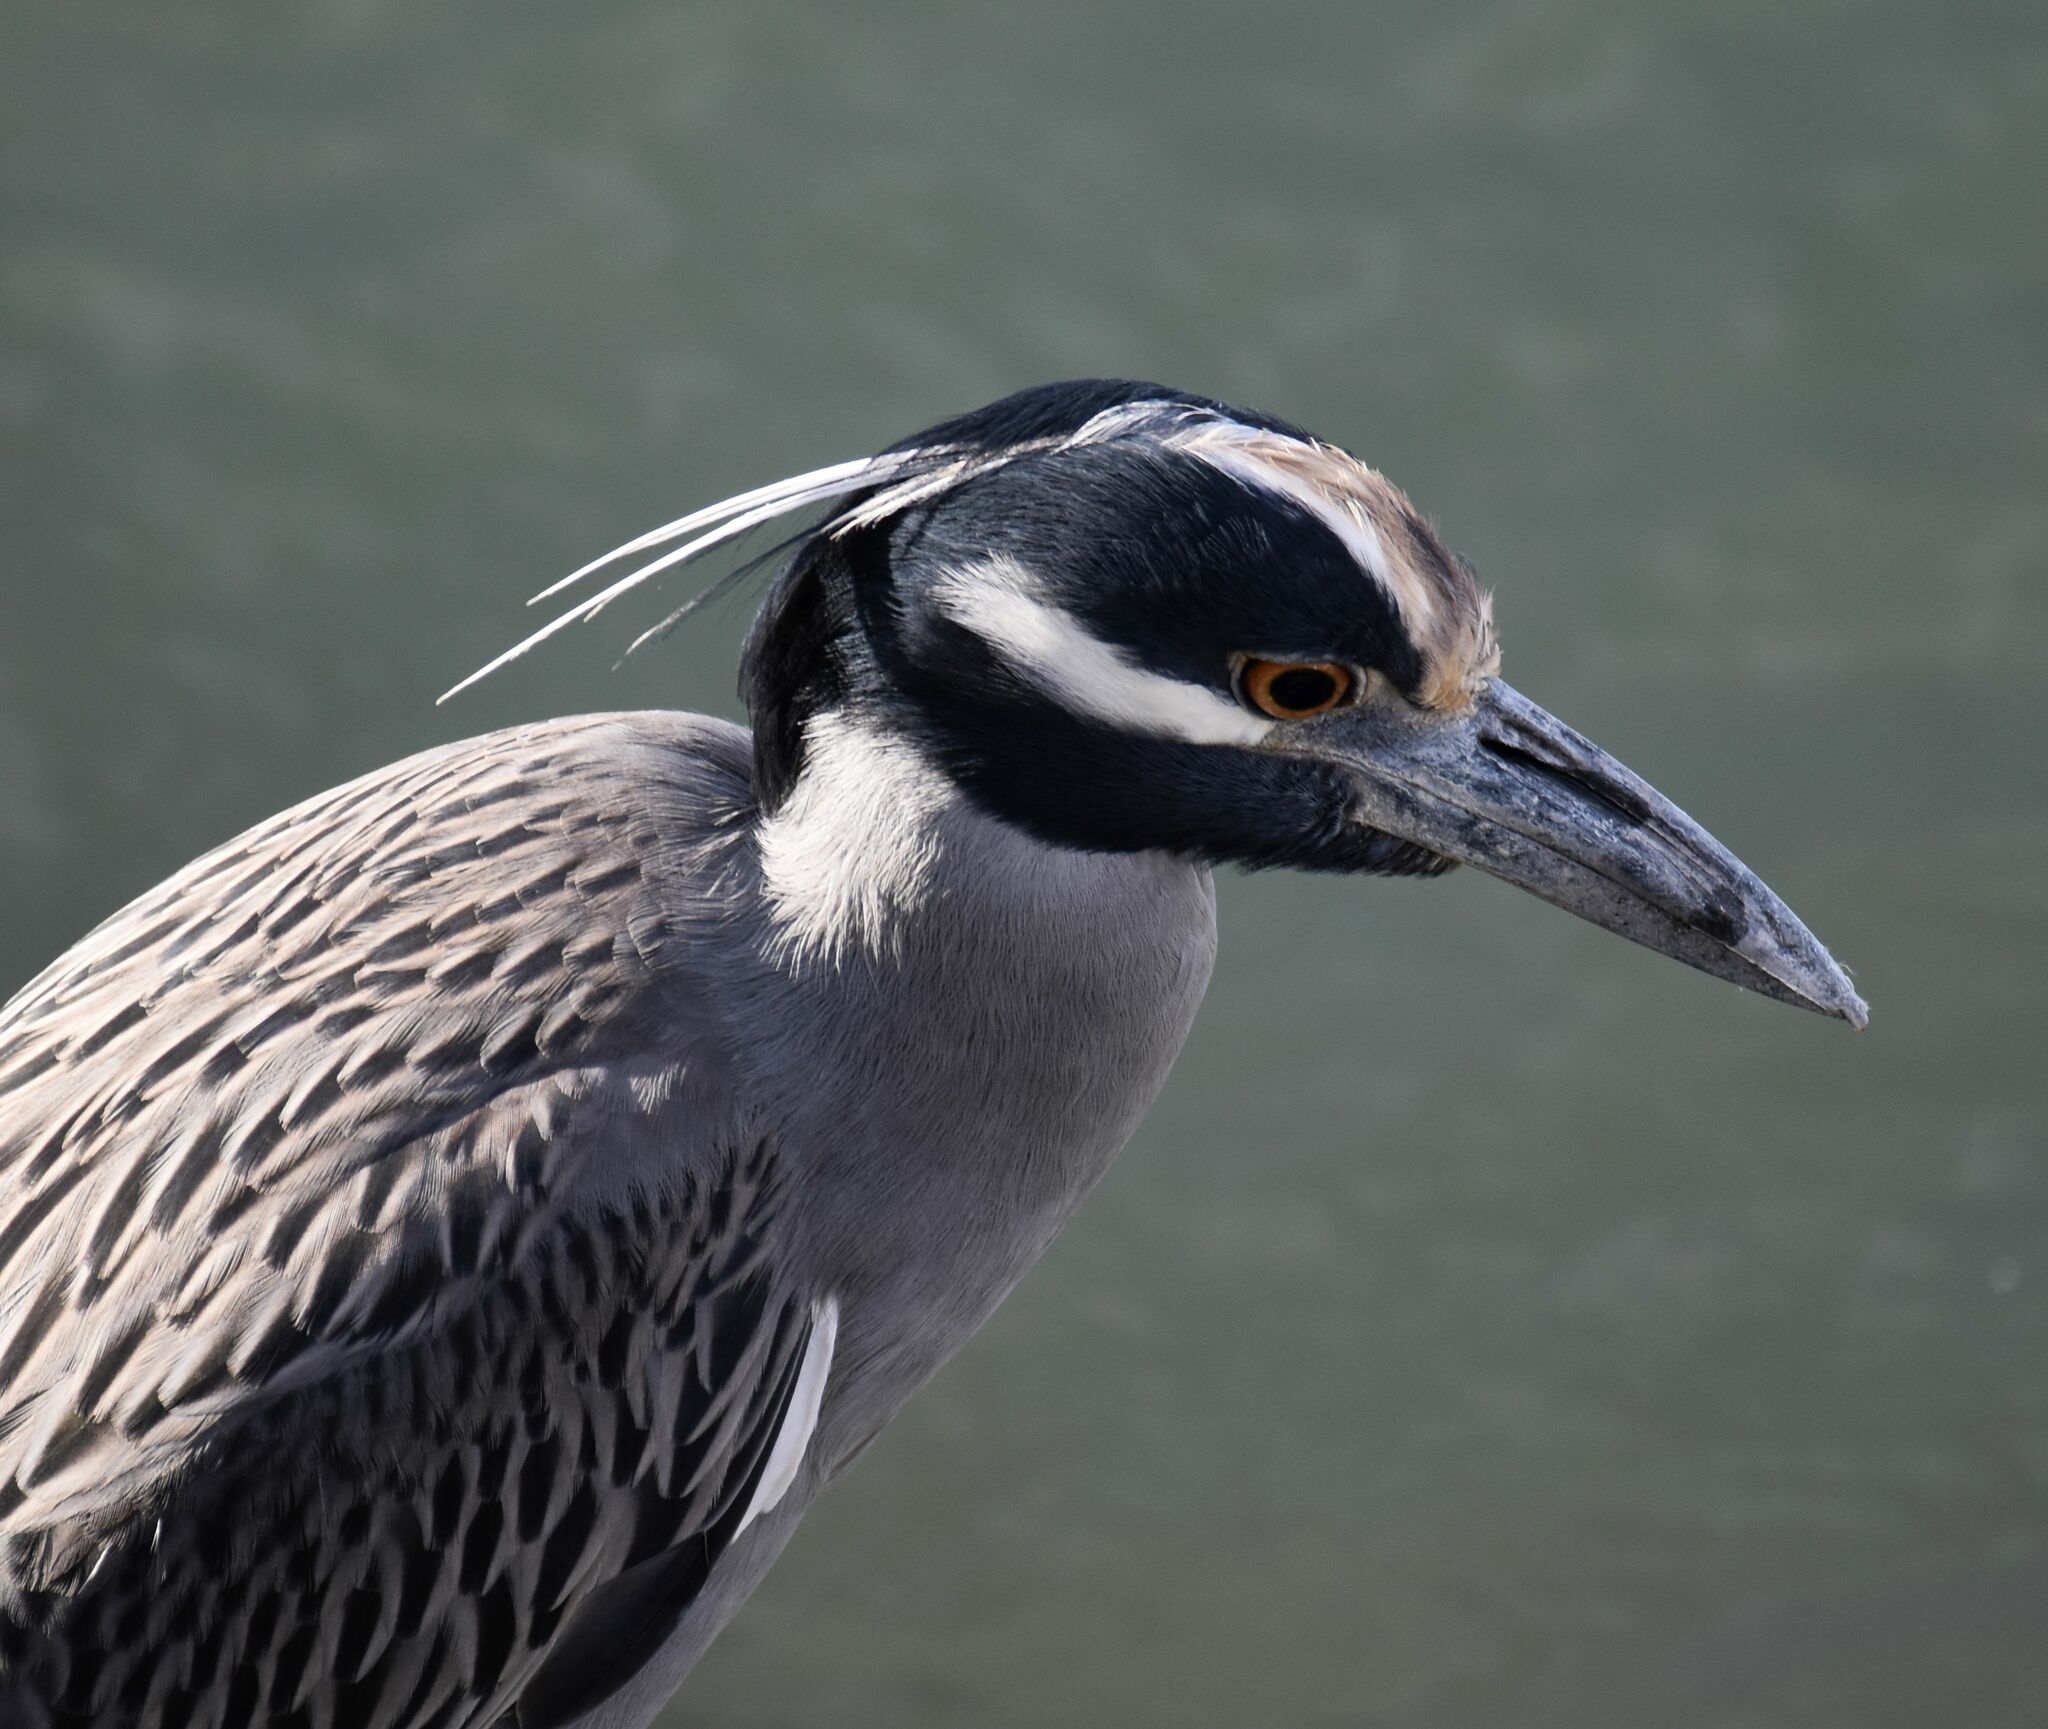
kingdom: Animalia
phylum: Chordata
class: Aves
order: Pelecaniformes
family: Ardeidae
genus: Nyctanassa
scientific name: Nyctanassa violacea
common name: Yellow-crowned night heron
